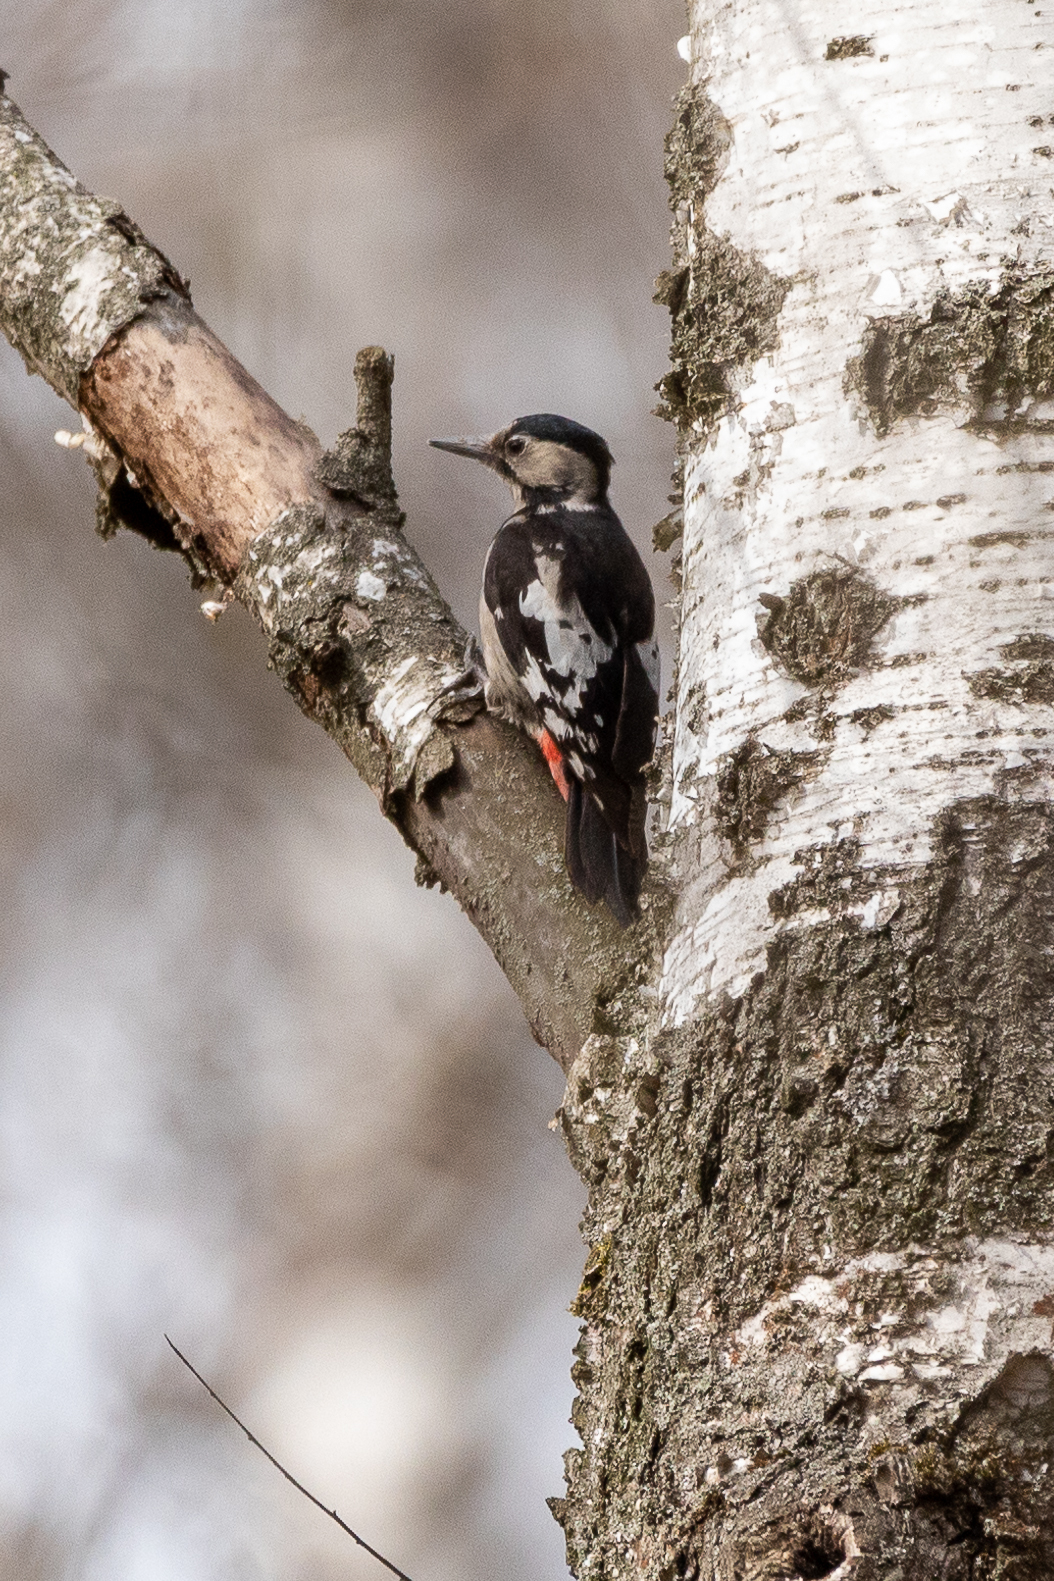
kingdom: Animalia
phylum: Chordata
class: Aves
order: Piciformes
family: Picidae
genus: Dendrocopos
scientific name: Dendrocopos syriacus
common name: Syrian woodpecker
